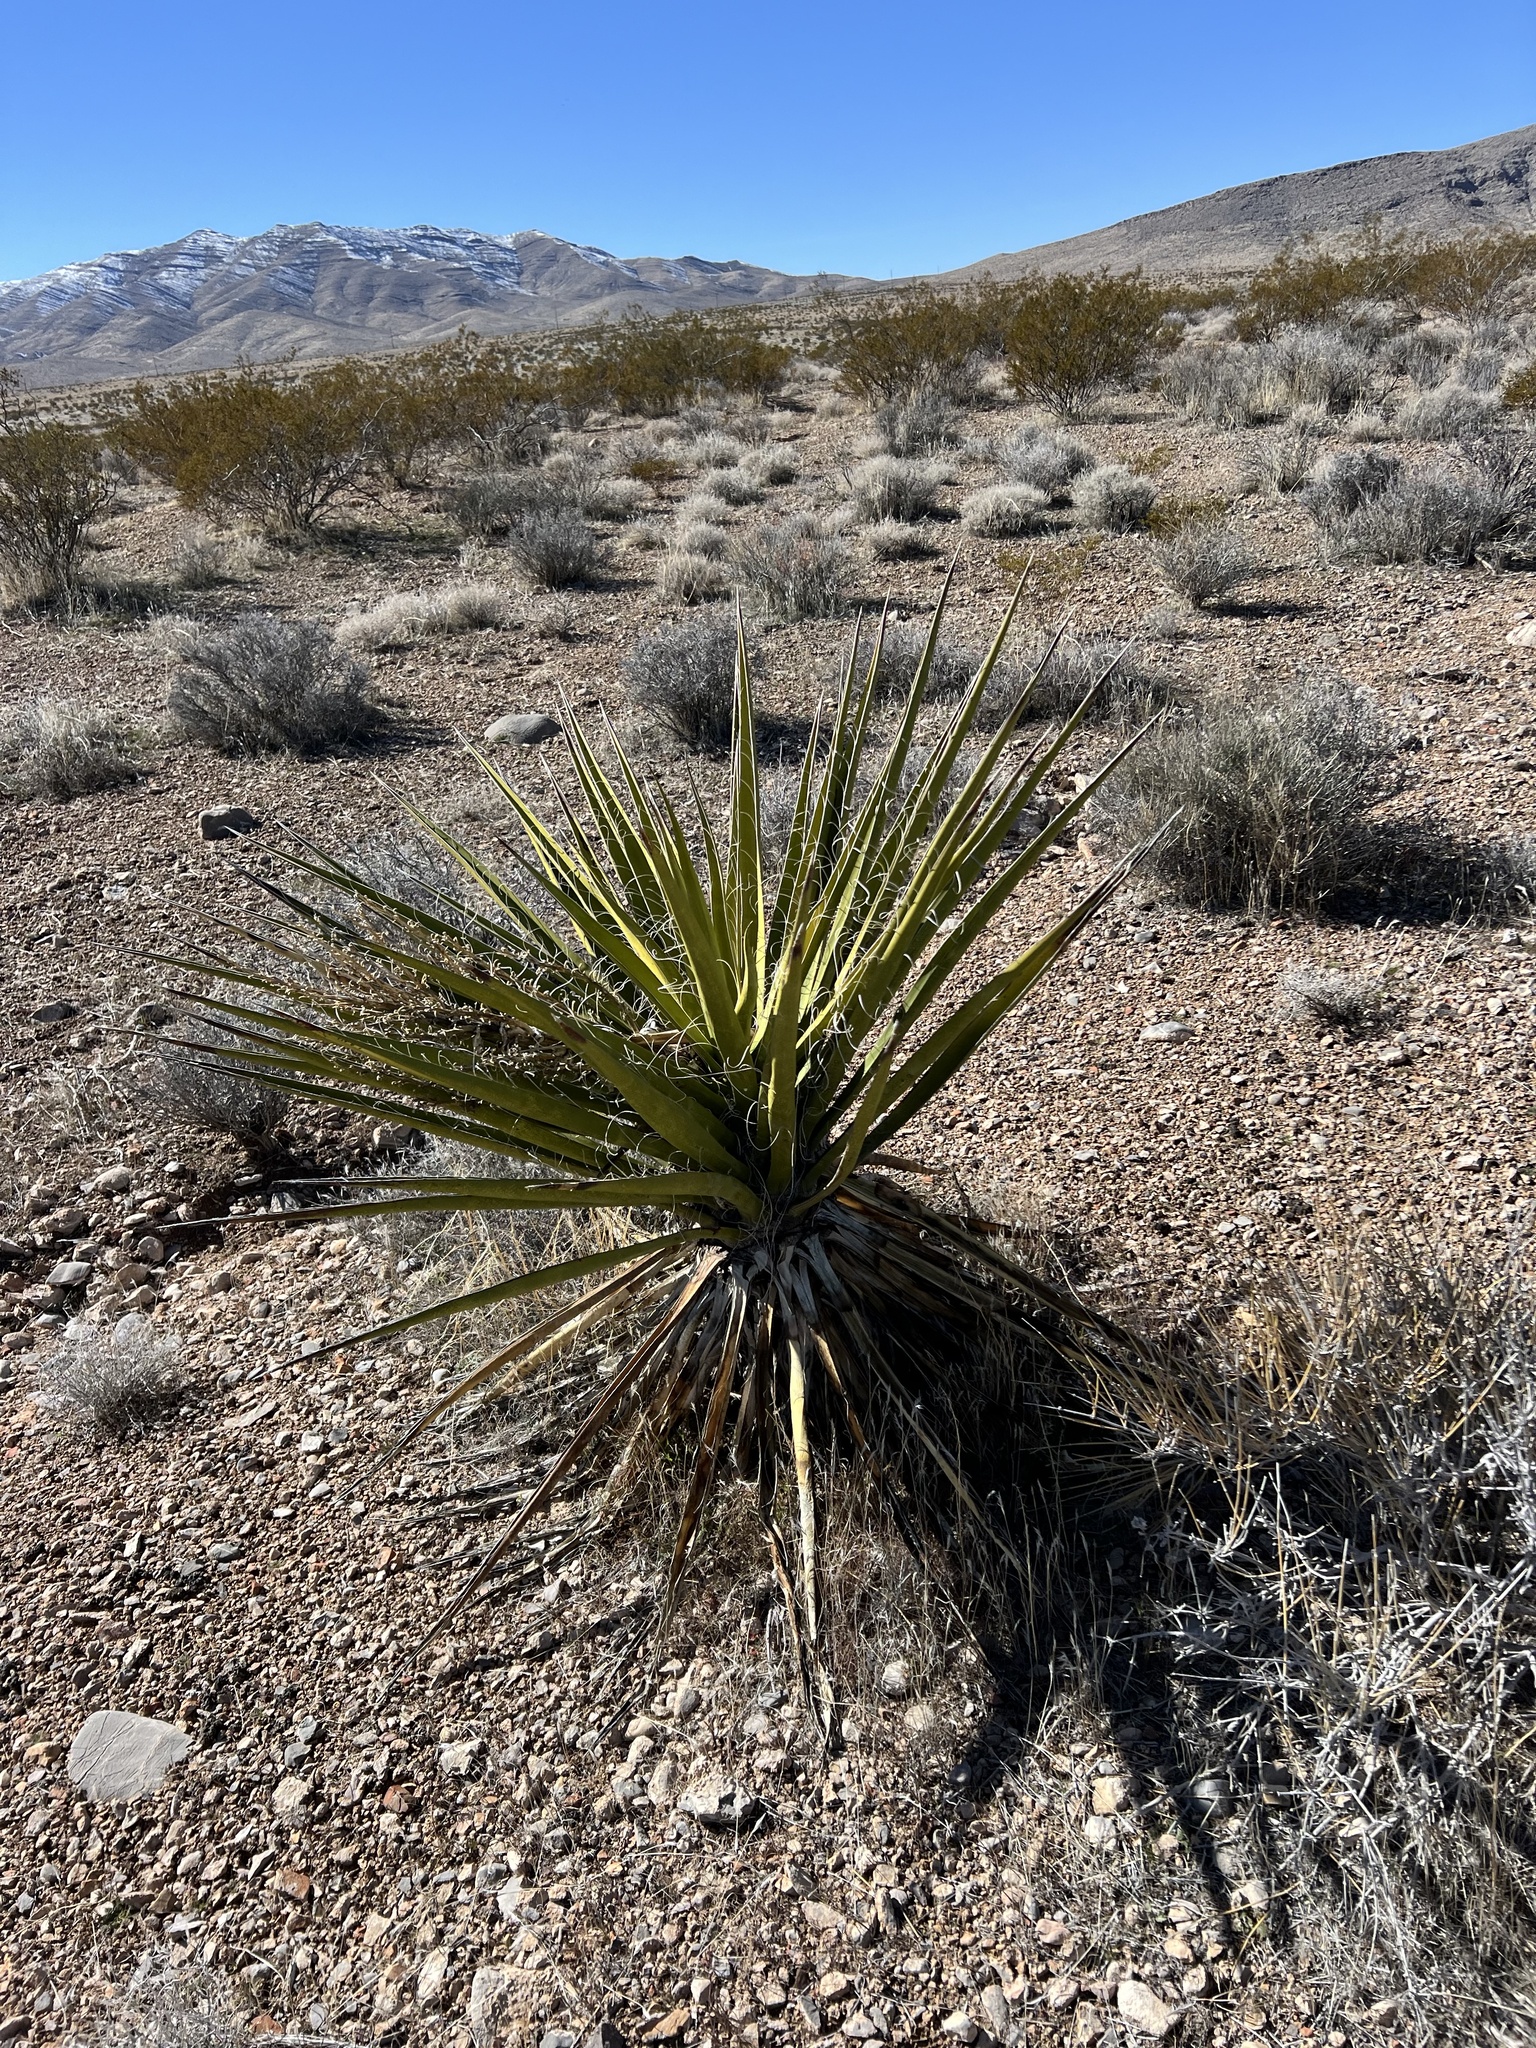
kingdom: Plantae
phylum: Tracheophyta
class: Liliopsida
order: Asparagales
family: Asparagaceae
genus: Yucca
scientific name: Yucca schidigera
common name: Mojave yucca
